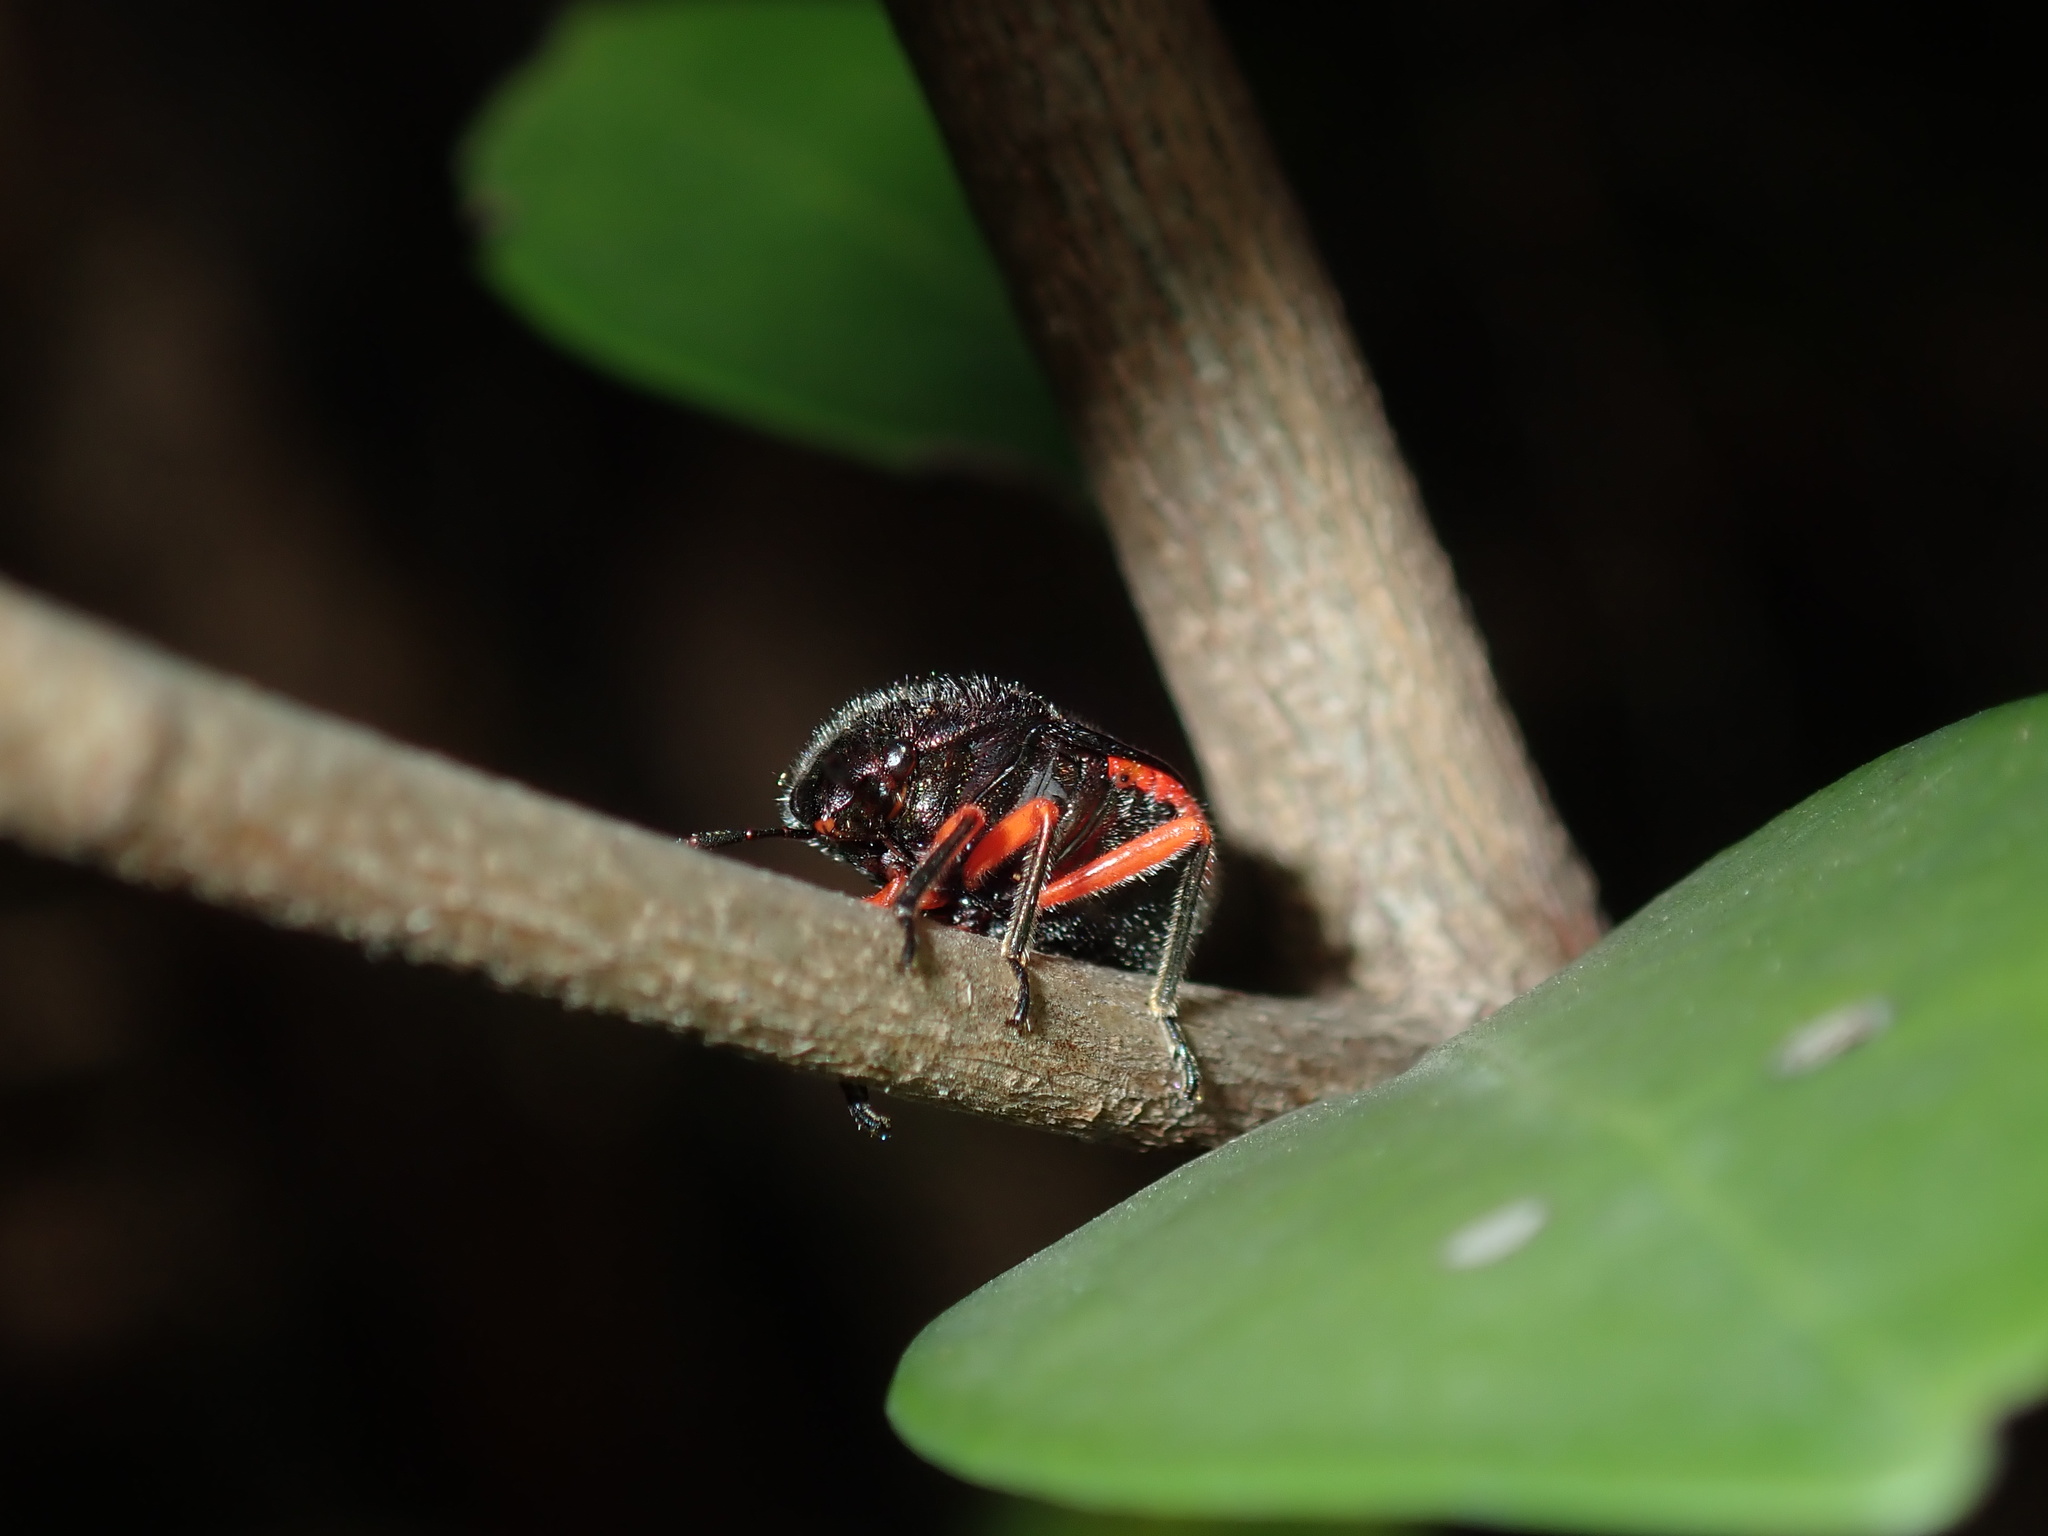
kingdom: Animalia
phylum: Arthropoda
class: Insecta
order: Hemiptera
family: Scutelleridae
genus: Lampromicra
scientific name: Lampromicra
